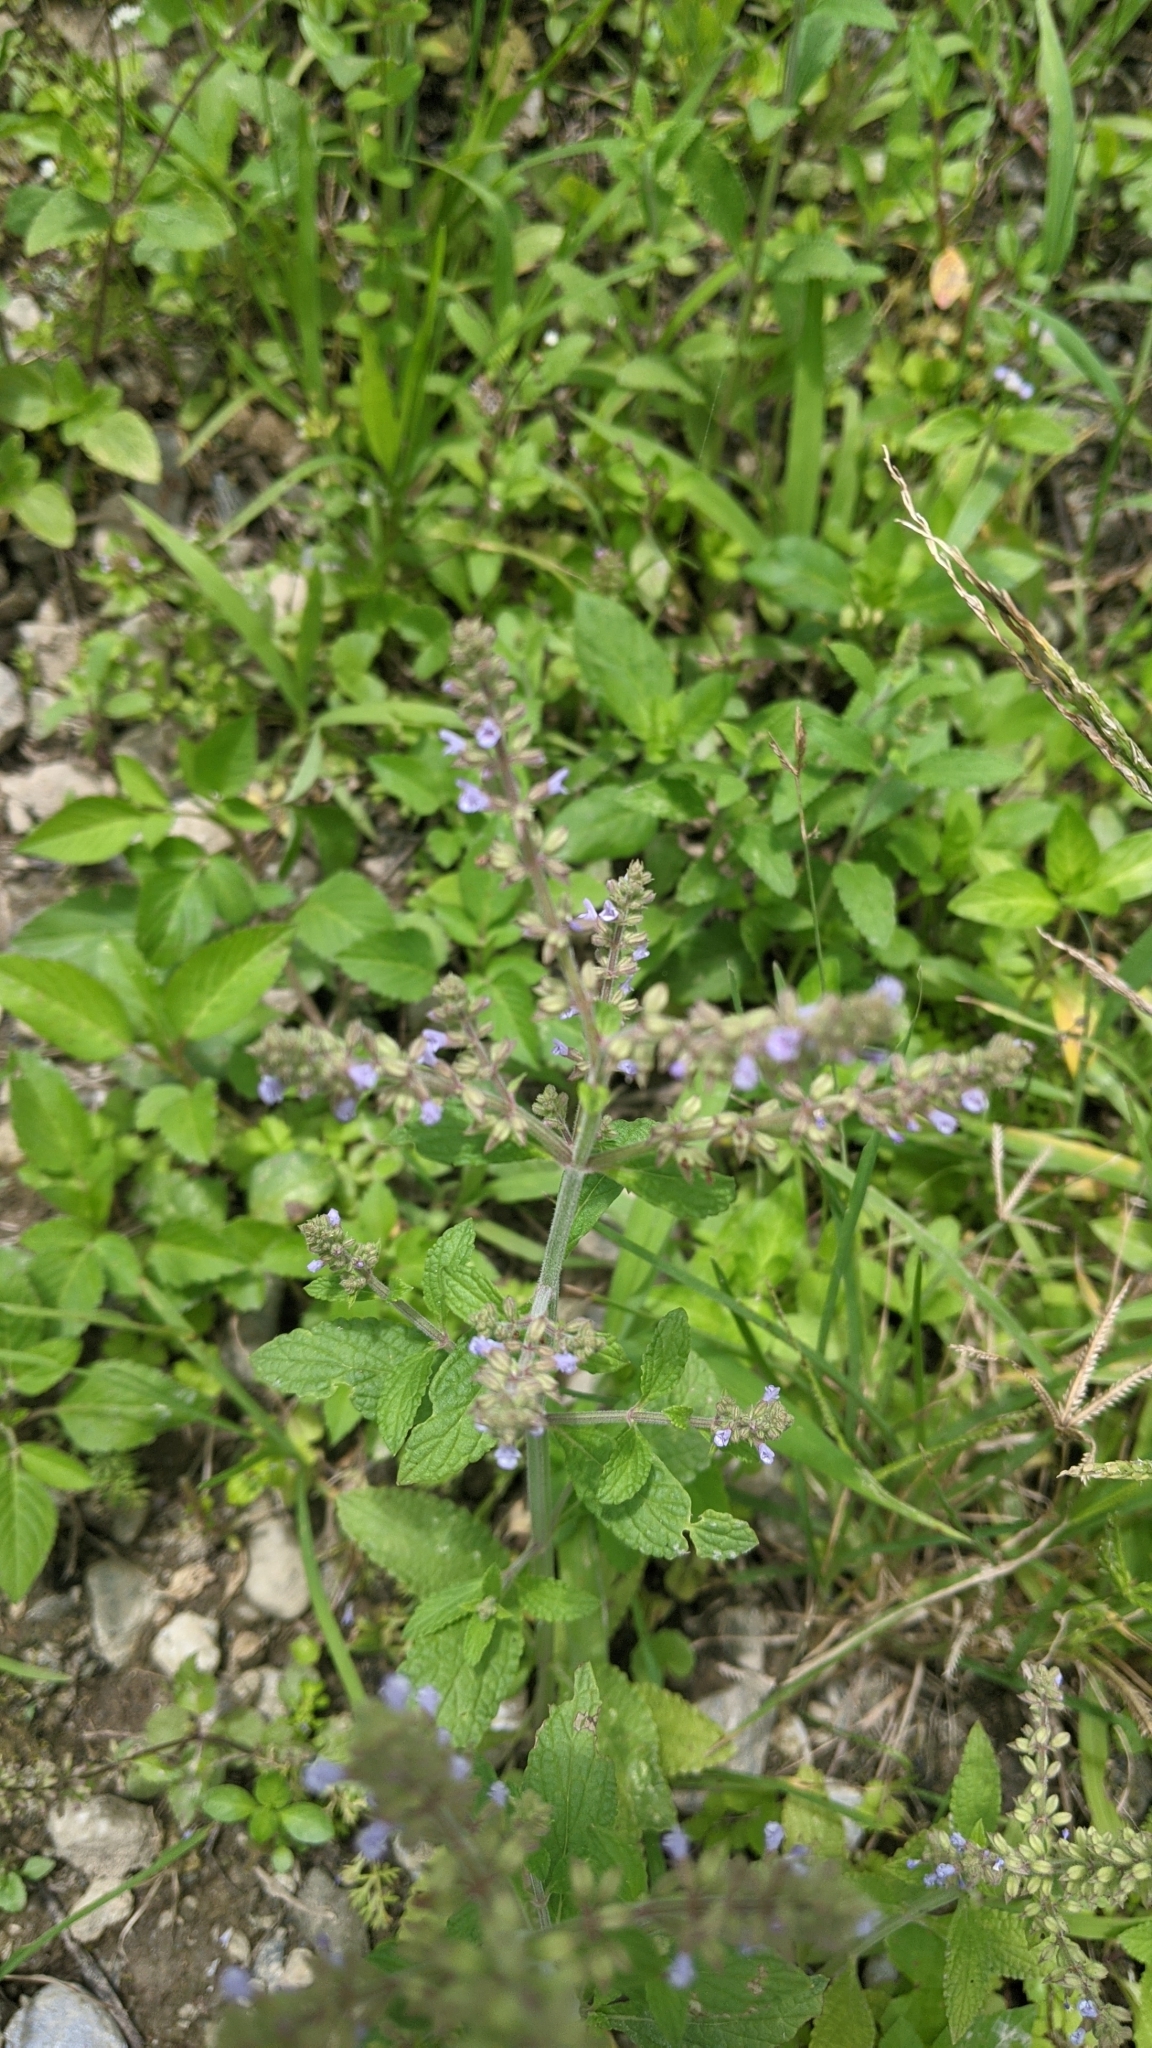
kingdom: Plantae
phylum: Tracheophyta
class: Magnoliopsida
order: Lamiales
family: Lamiaceae
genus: Salvia
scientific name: Salvia plebeia
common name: Australian sage
